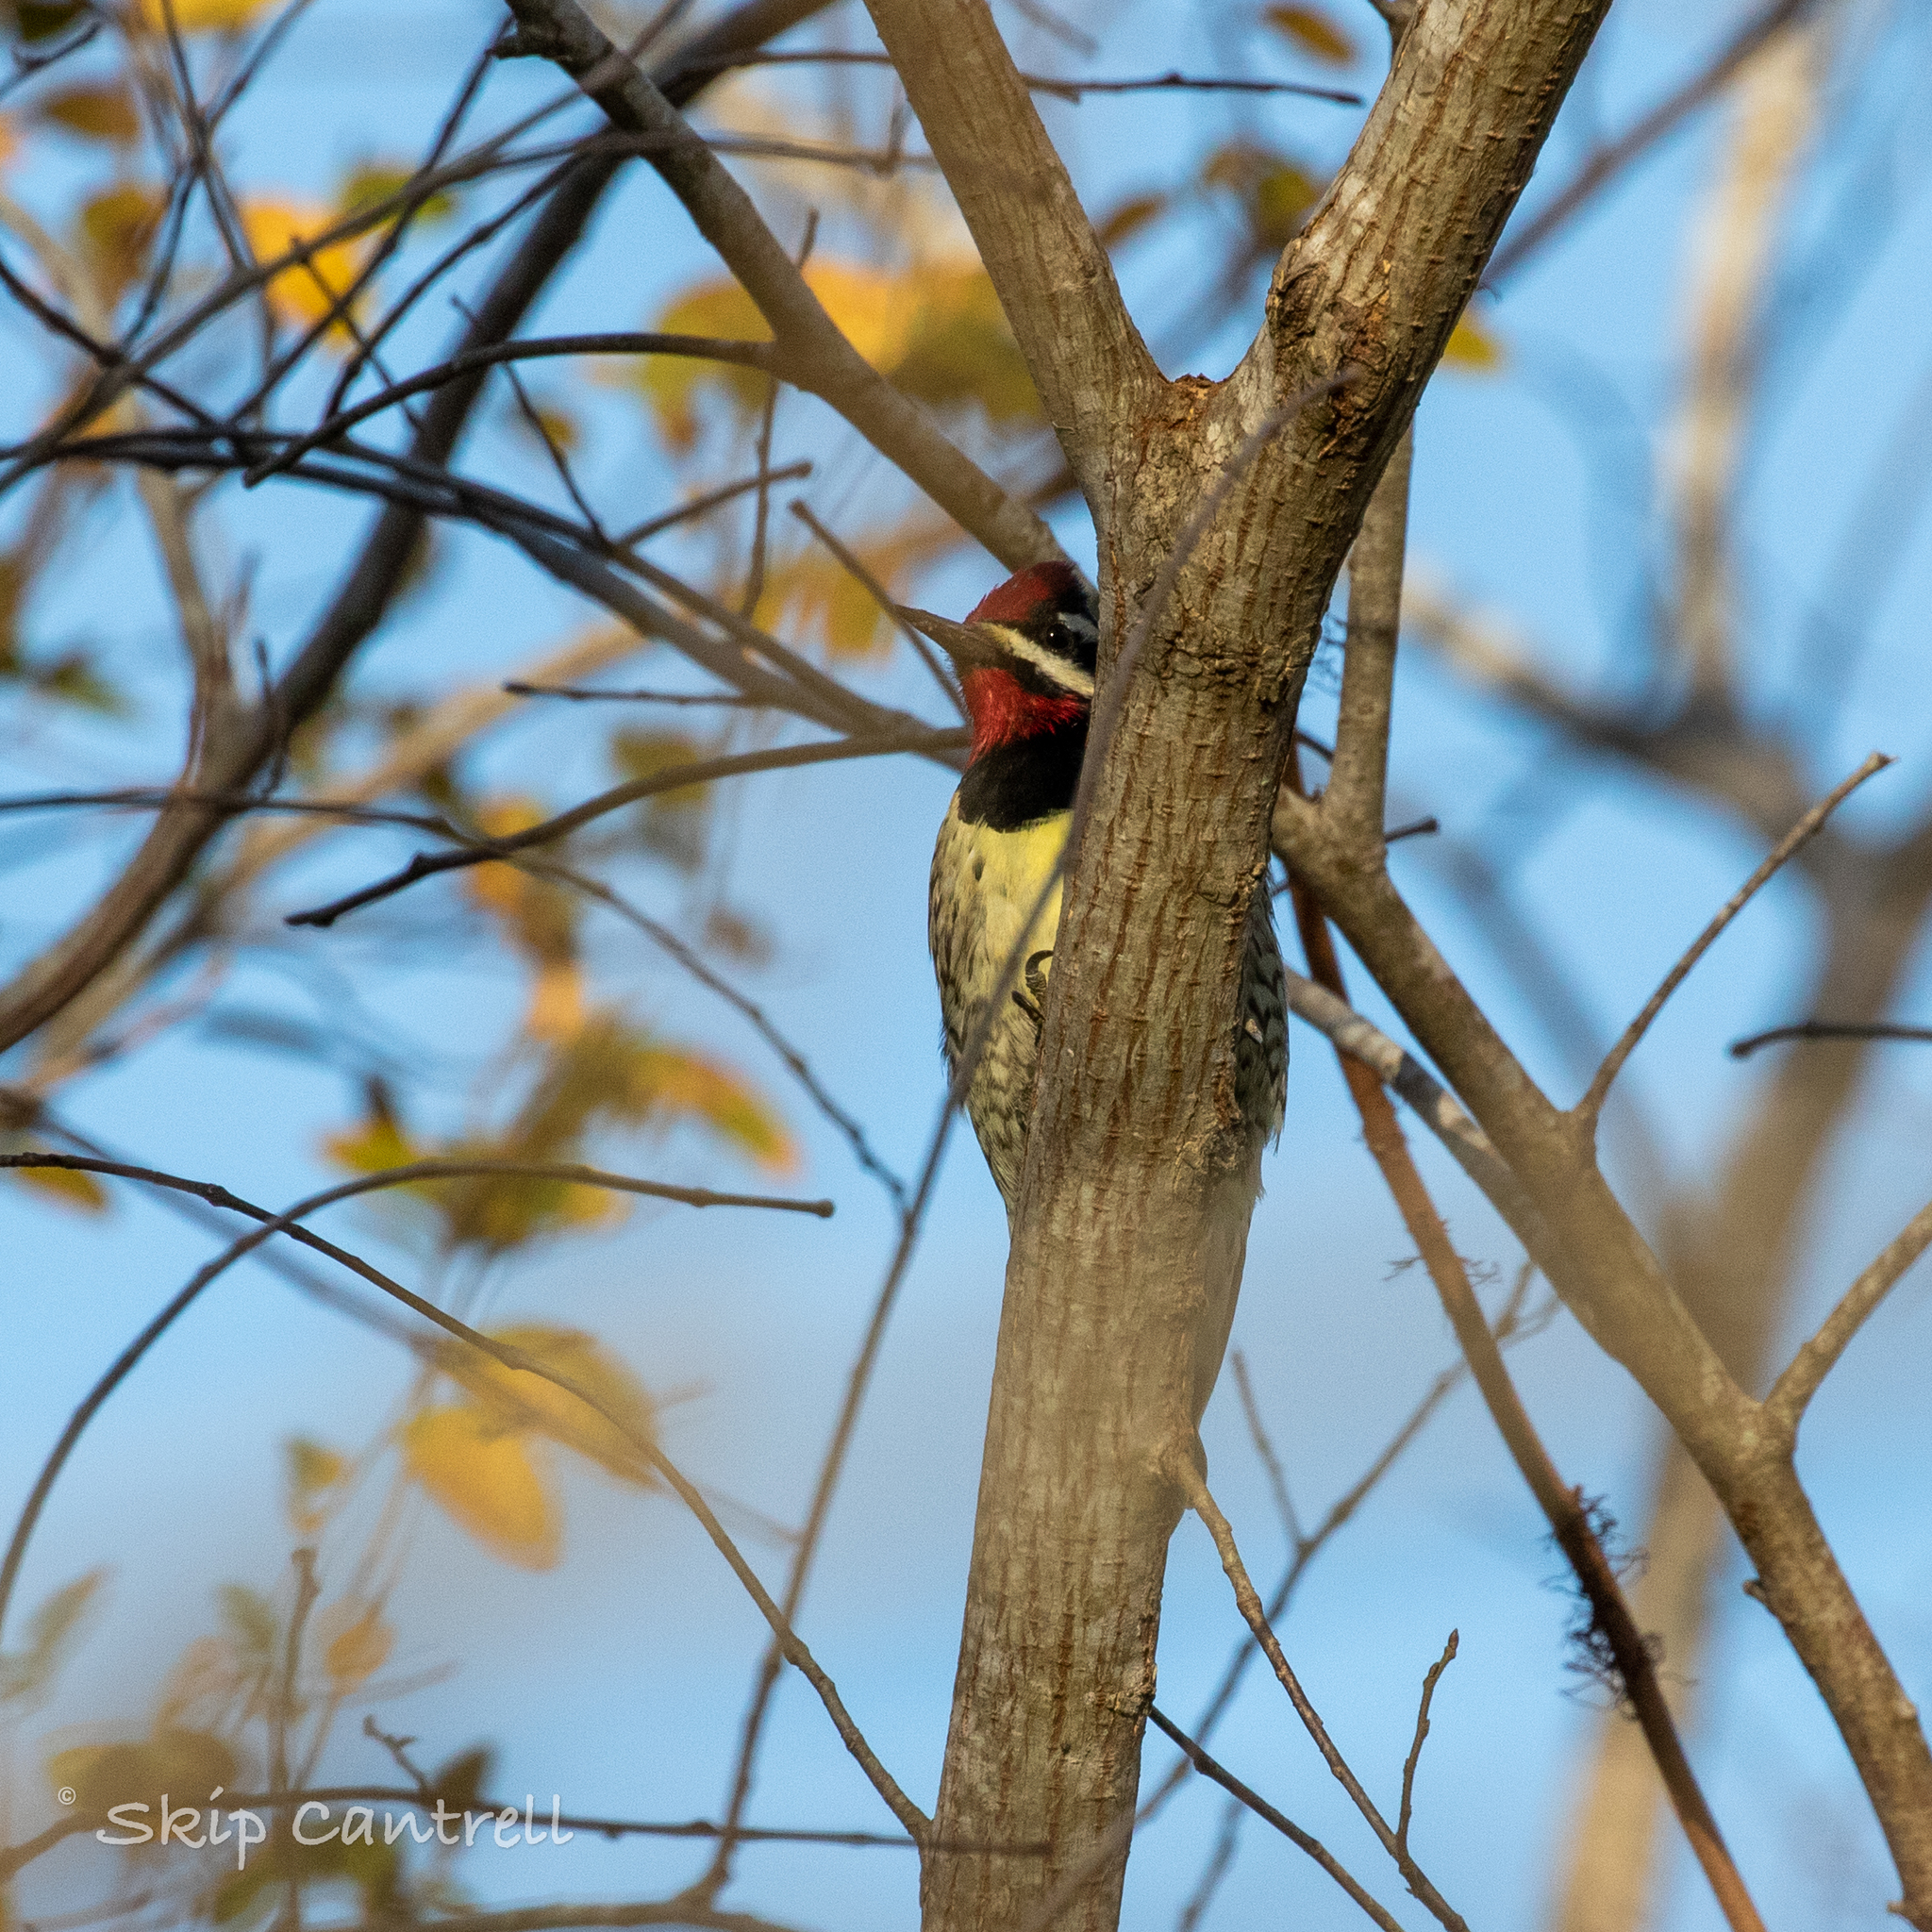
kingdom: Animalia
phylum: Chordata
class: Aves
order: Piciformes
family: Picidae
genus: Sphyrapicus
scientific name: Sphyrapicus varius
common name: Yellow-bellied sapsucker
